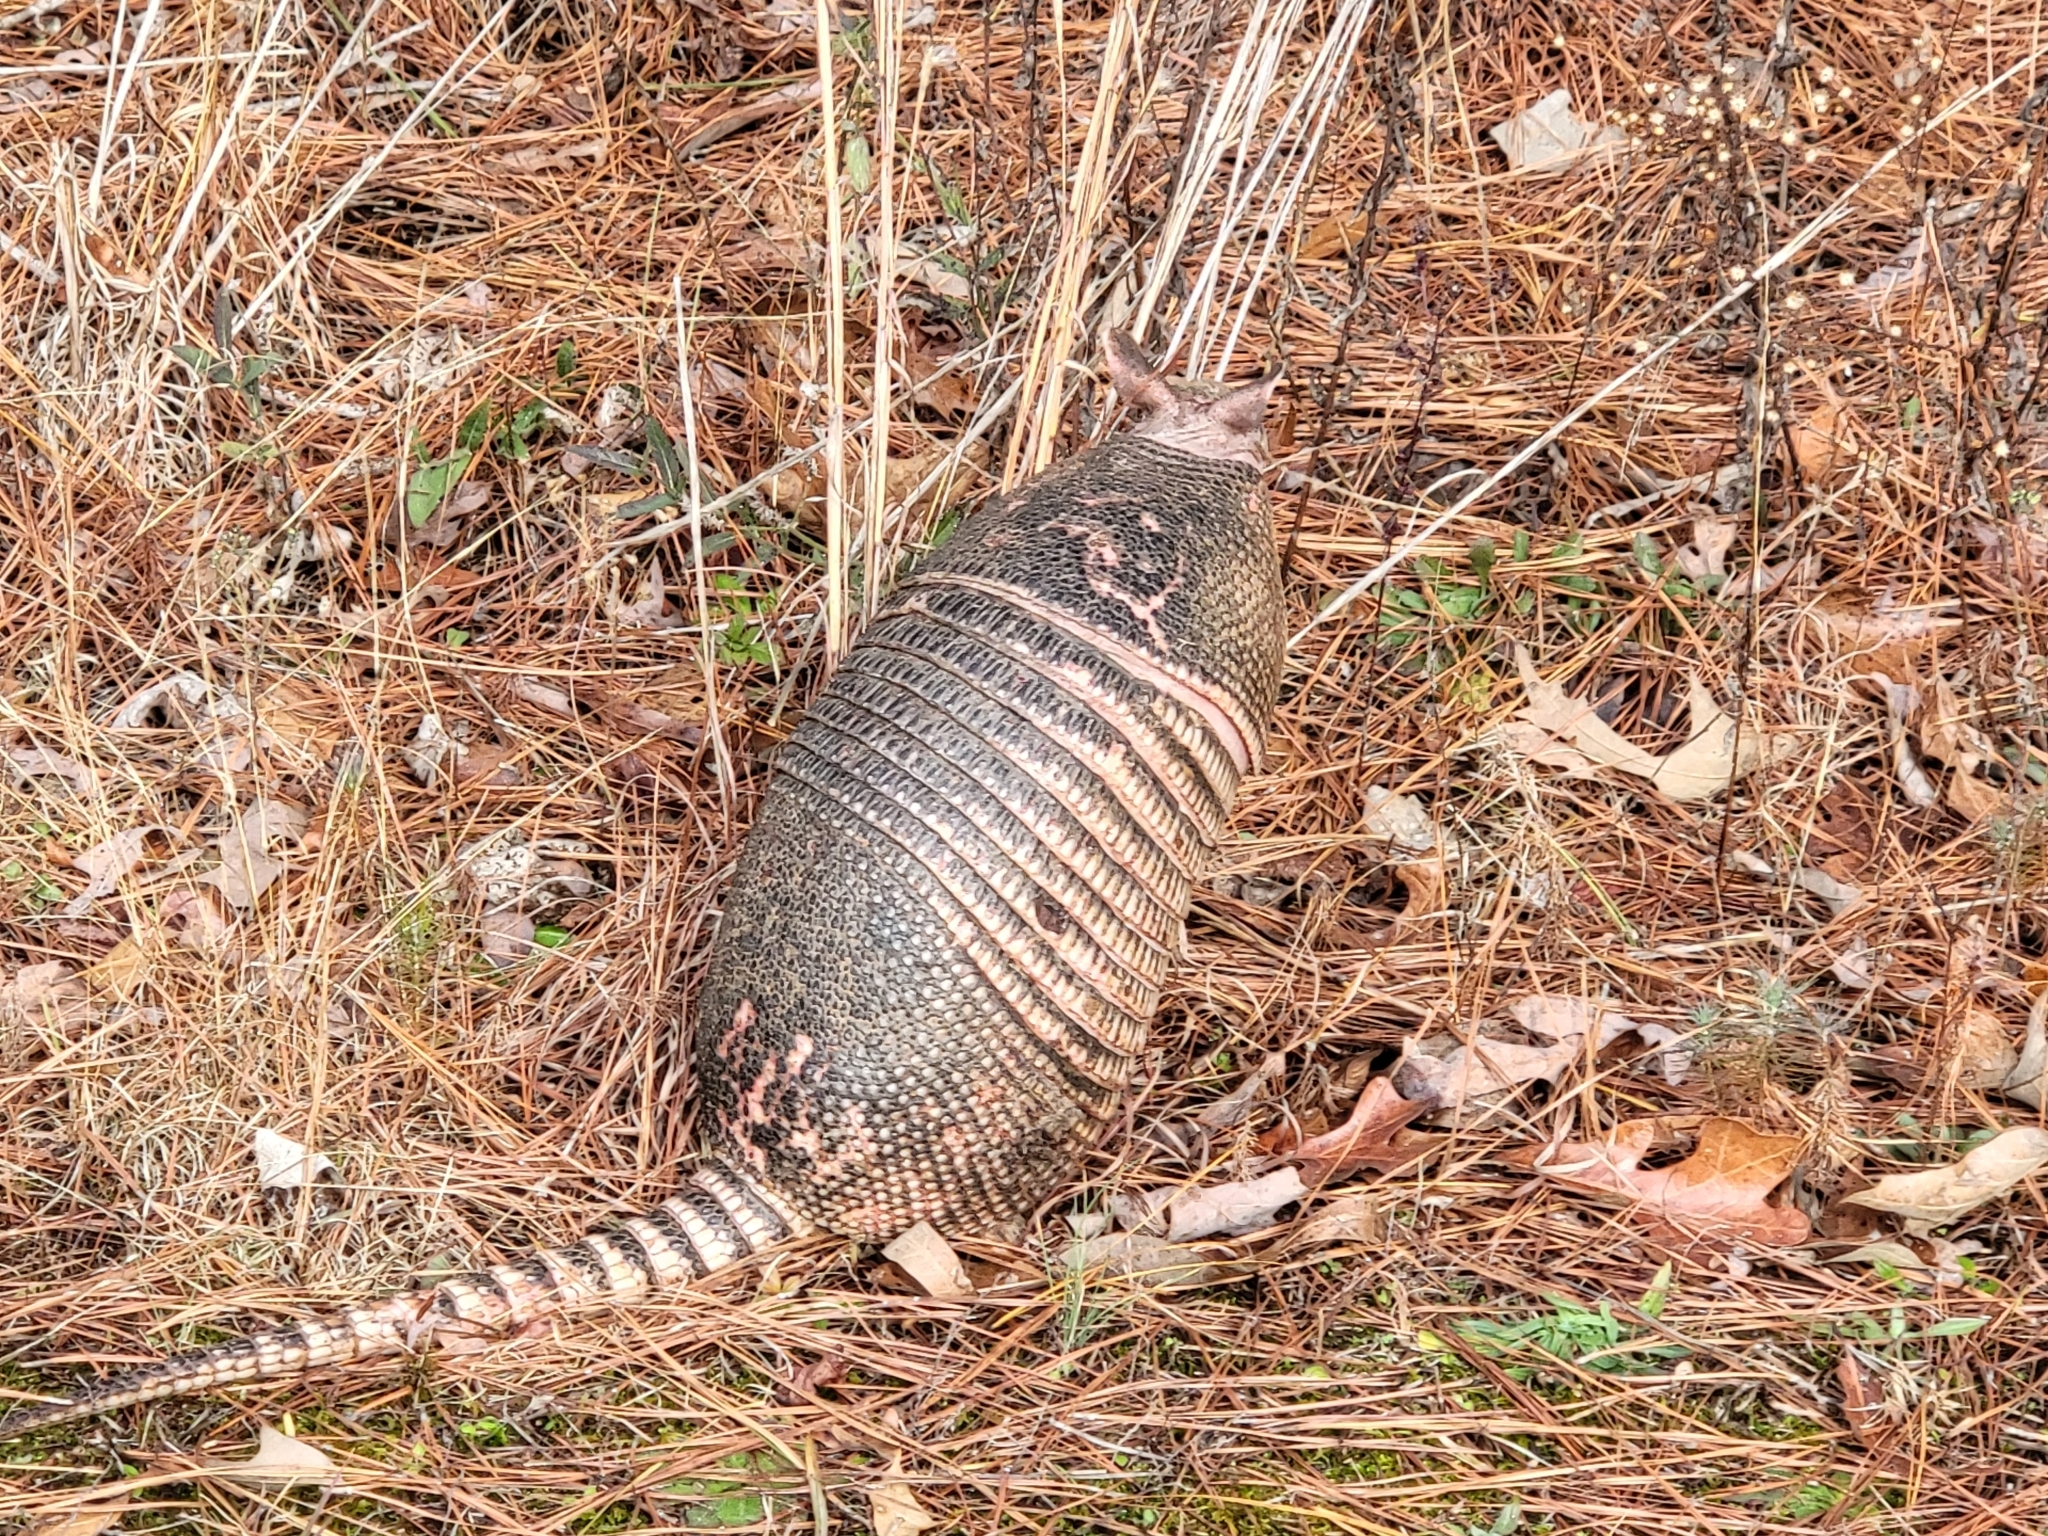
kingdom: Animalia
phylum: Chordata
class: Mammalia
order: Cingulata
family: Dasypodidae
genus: Dasypus
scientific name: Dasypus novemcinctus
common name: Nine-banded armadillo
